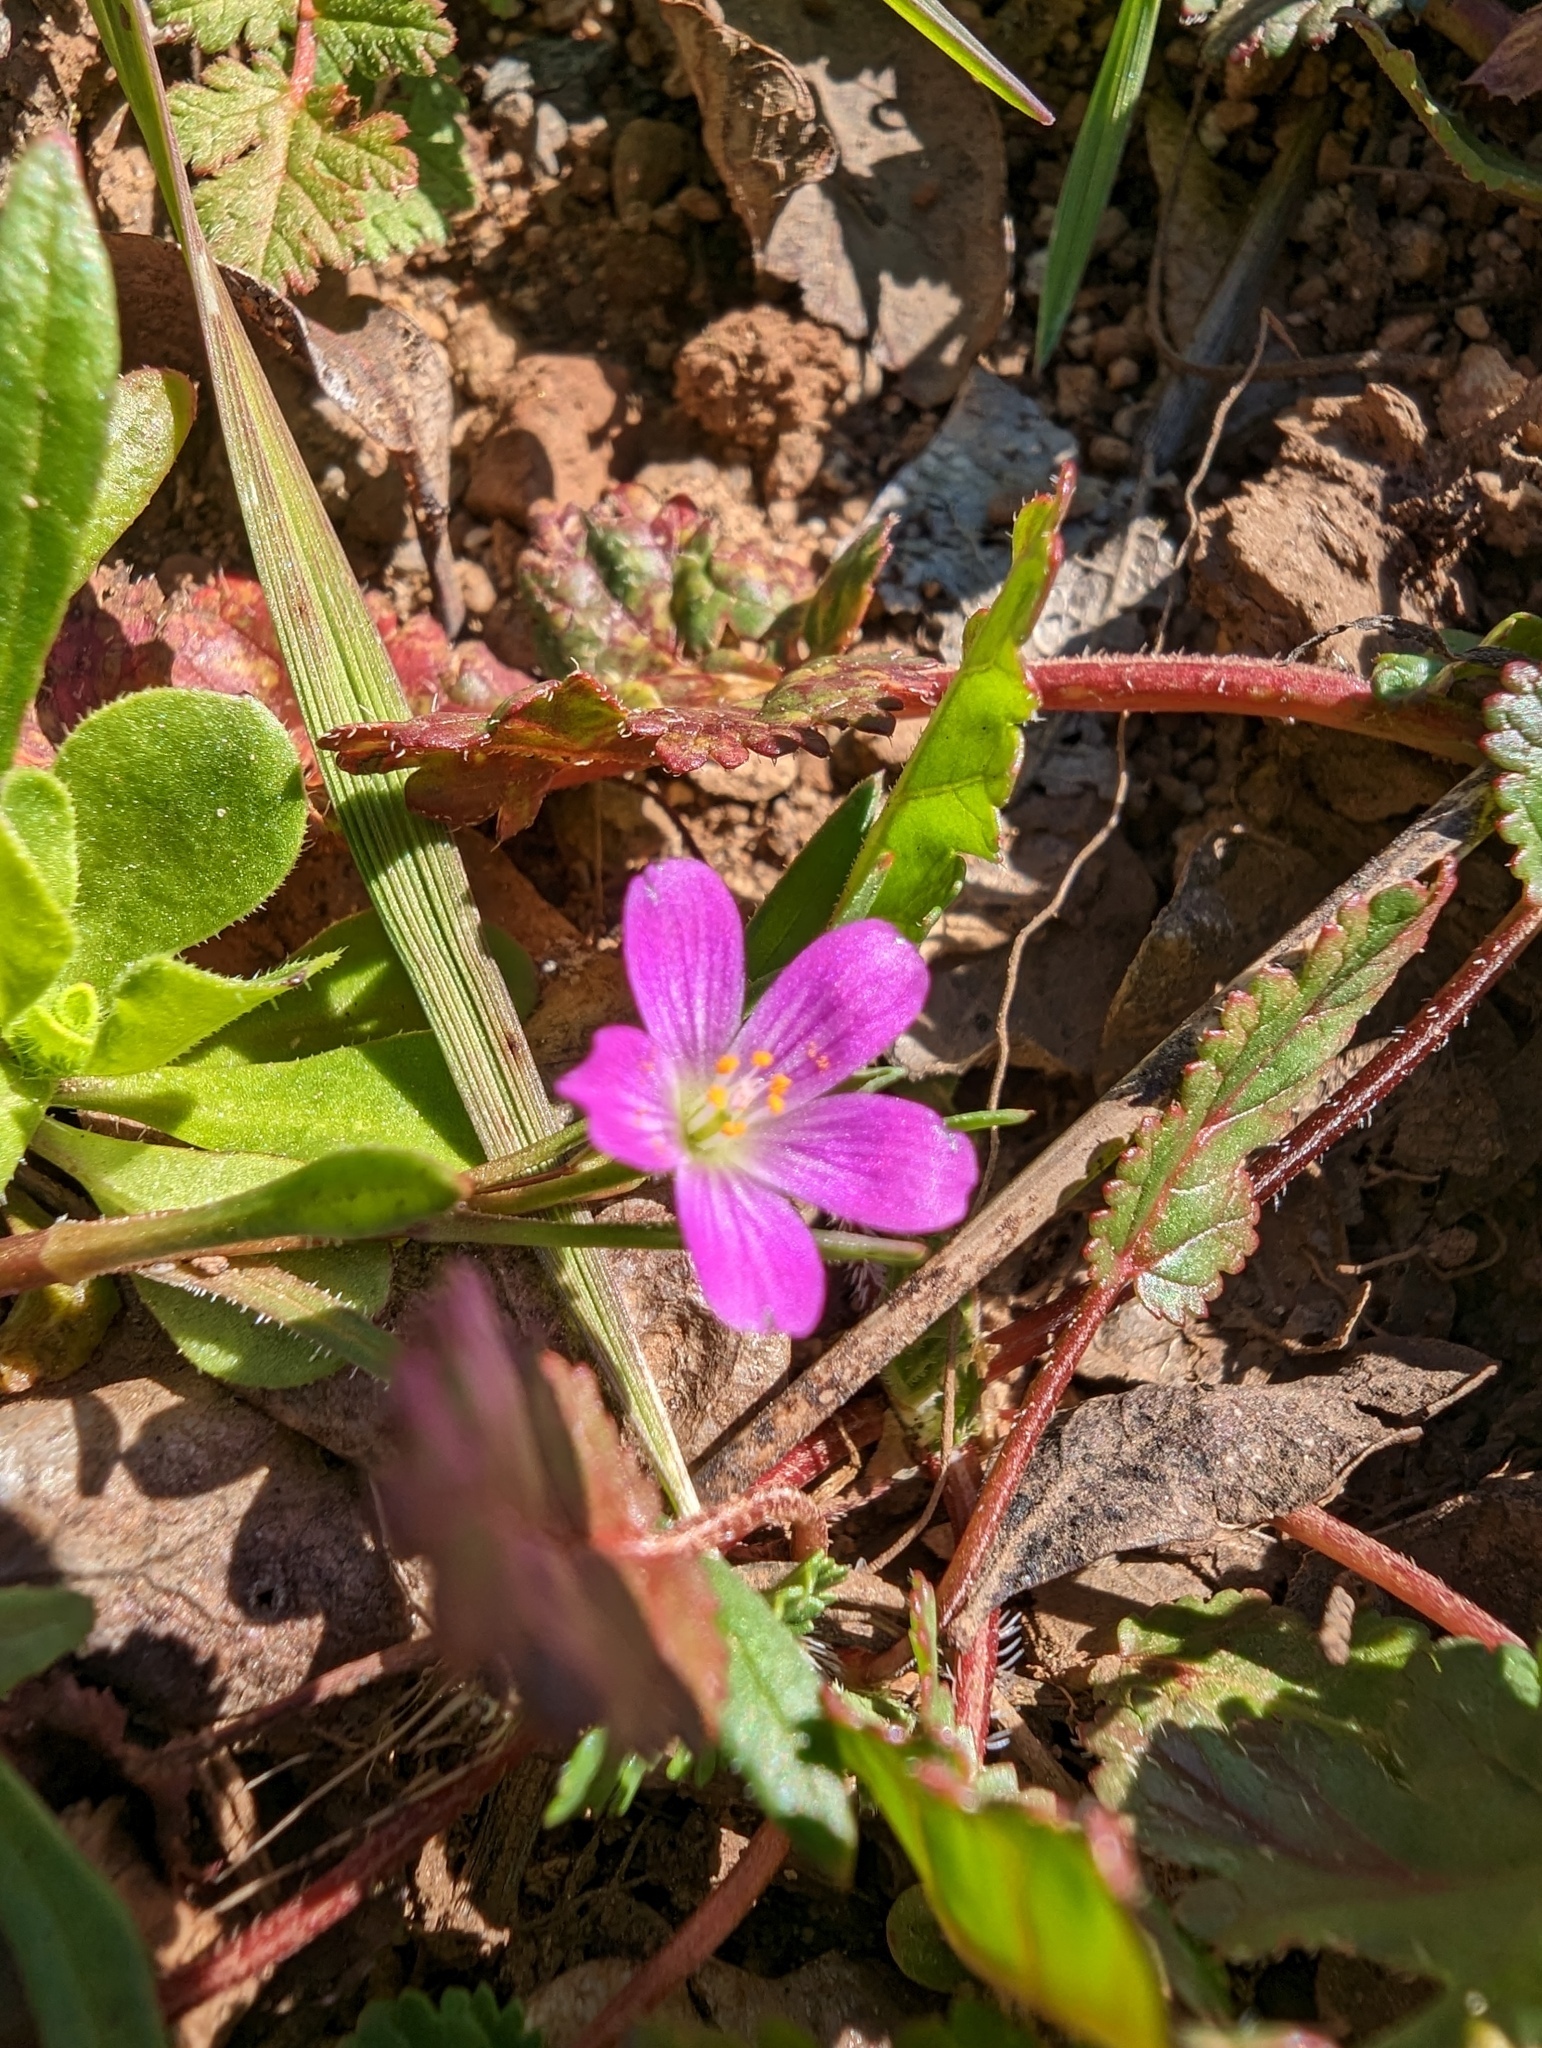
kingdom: Plantae
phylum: Tracheophyta
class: Magnoliopsida
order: Caryophyllales
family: Montiaceae
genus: Calandrinia
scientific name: Calandrinia menziesii
